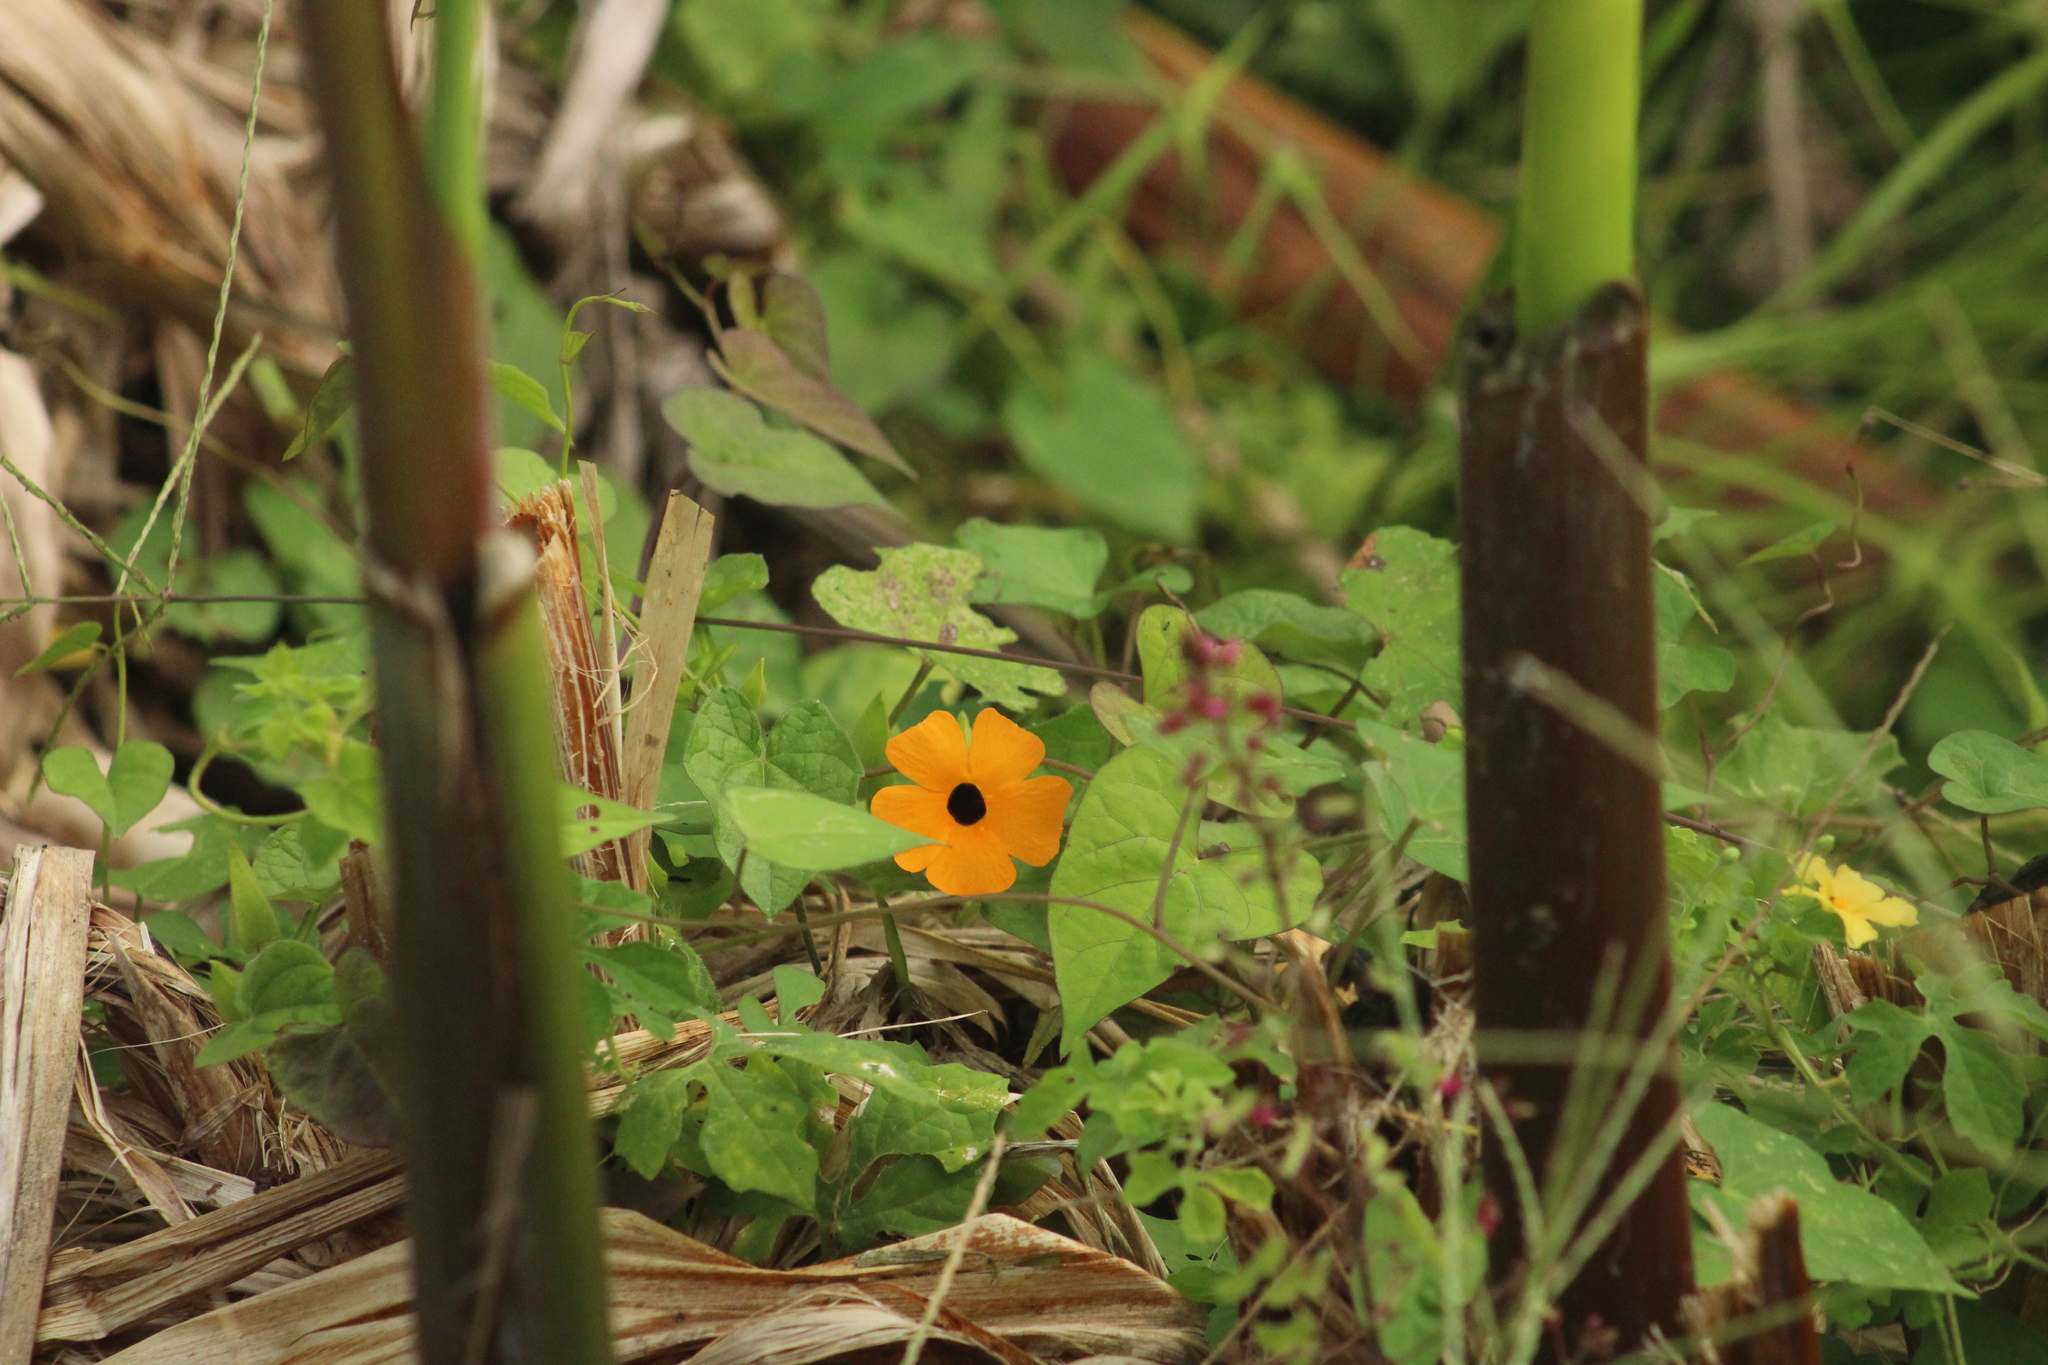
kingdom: Plantae
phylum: Tracheophyta
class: Magnoliopsida
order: Lamiales
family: Acanthaceae
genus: Thunbergia
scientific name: Thunbergia alata
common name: Blackeyed susan vine
